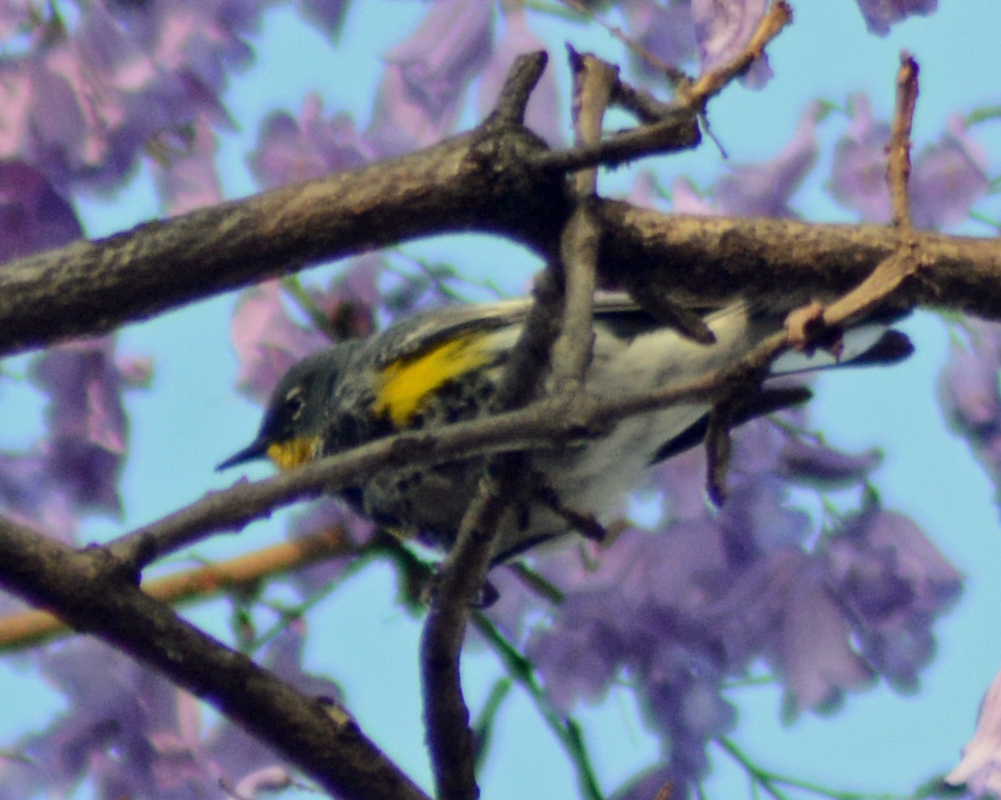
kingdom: Animalia
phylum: Chordata
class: Aves
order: Passeriformes
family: Parulidae
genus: Setophaga
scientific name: Setophaga coronata
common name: Myrtle warbler
